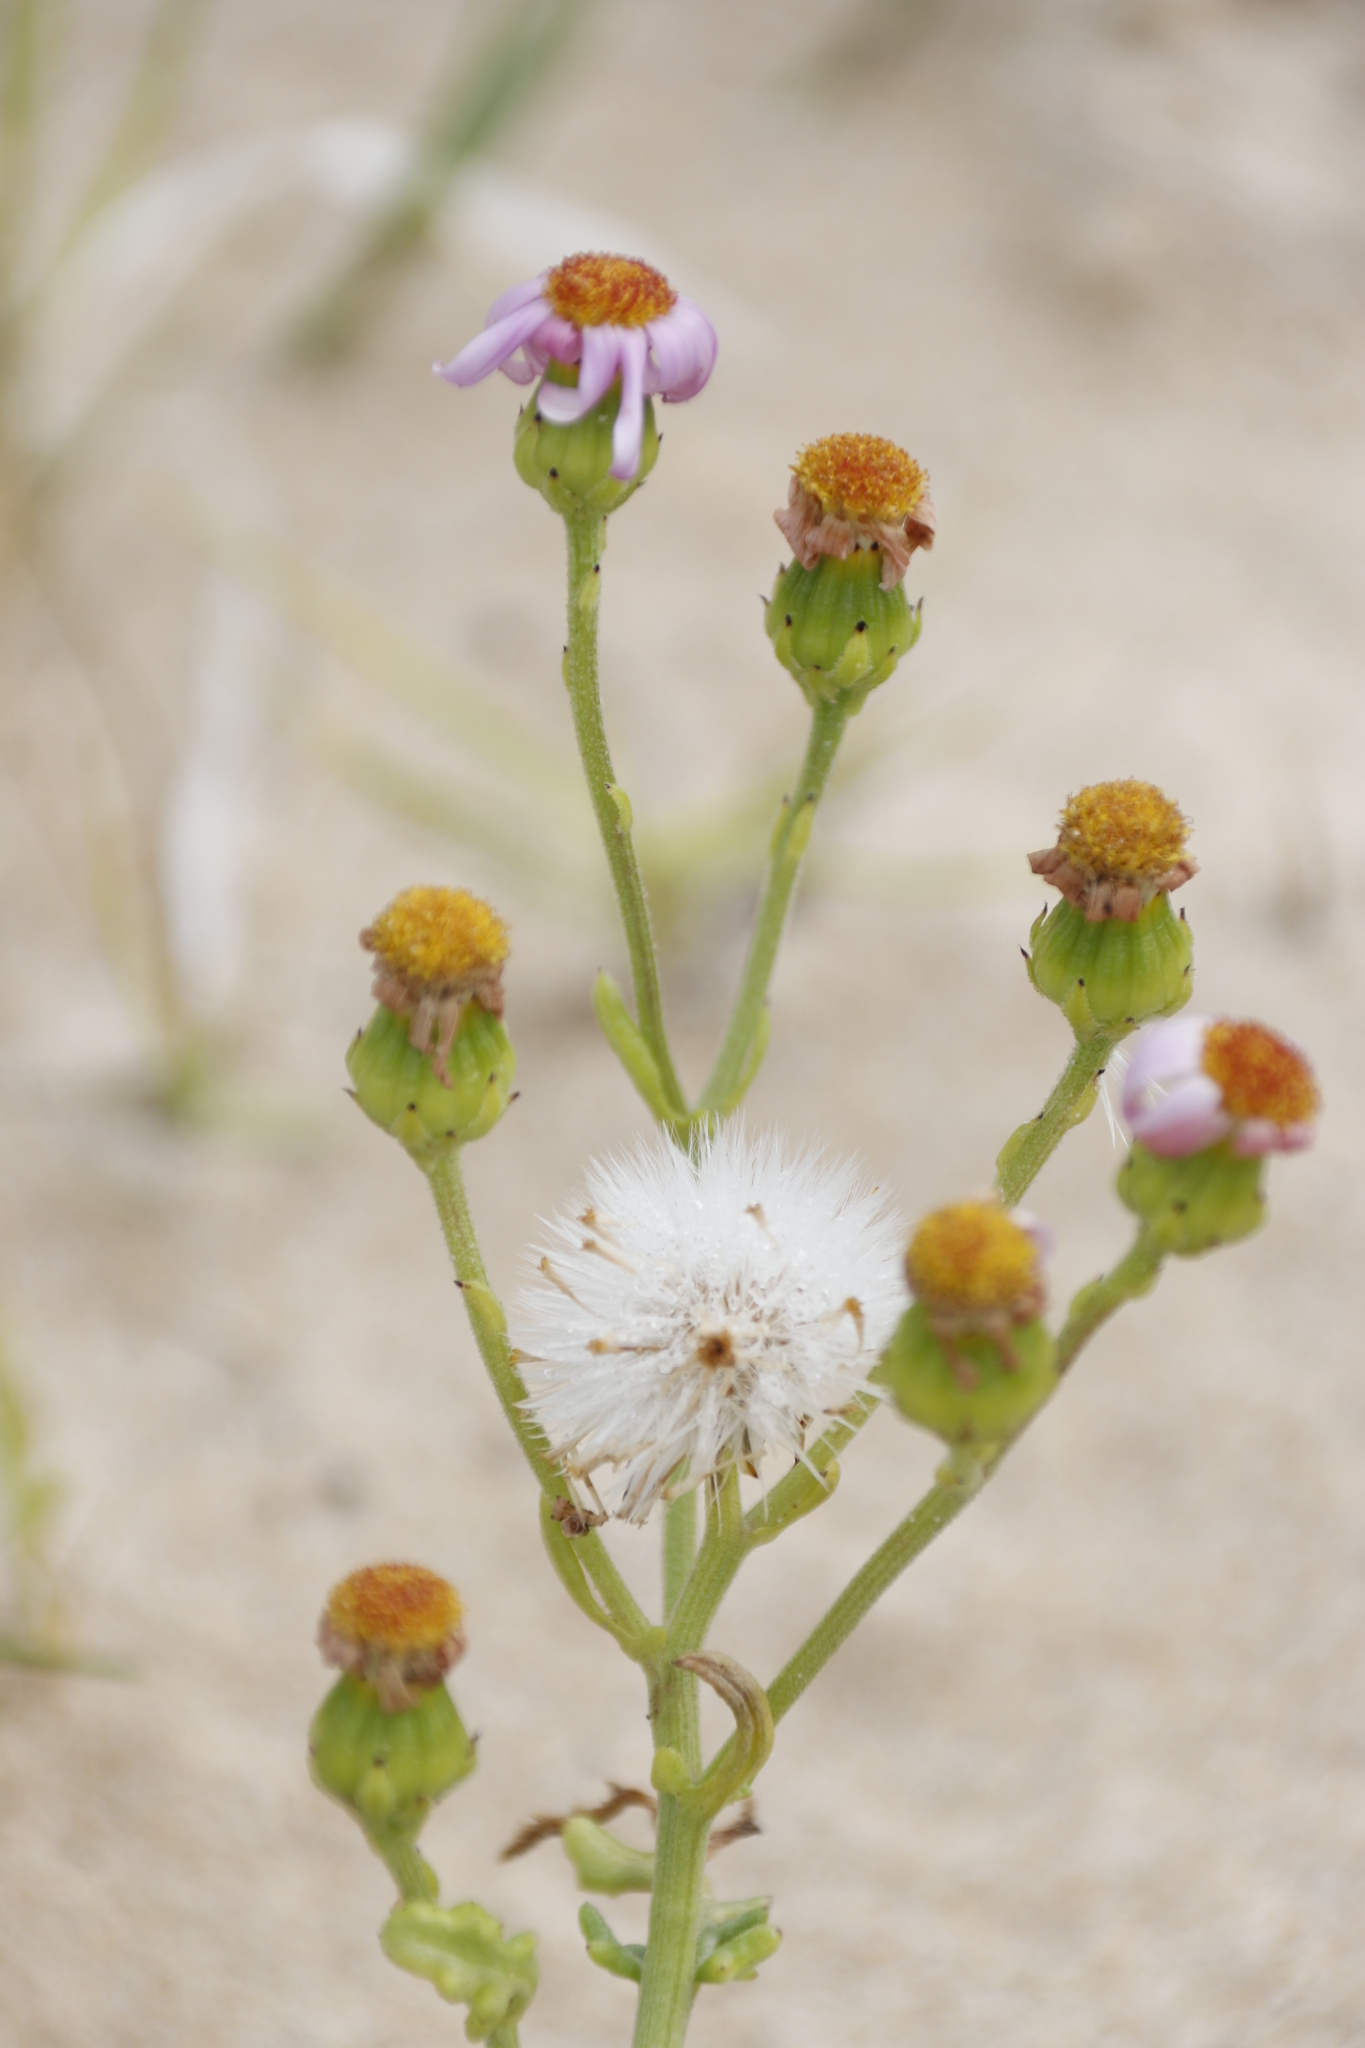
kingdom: Plantae
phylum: Tracheophyta
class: Magnoliopsida
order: Asterales
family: Asteraceae
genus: Senecio
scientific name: Senecio elegans
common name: Purple groundsel
